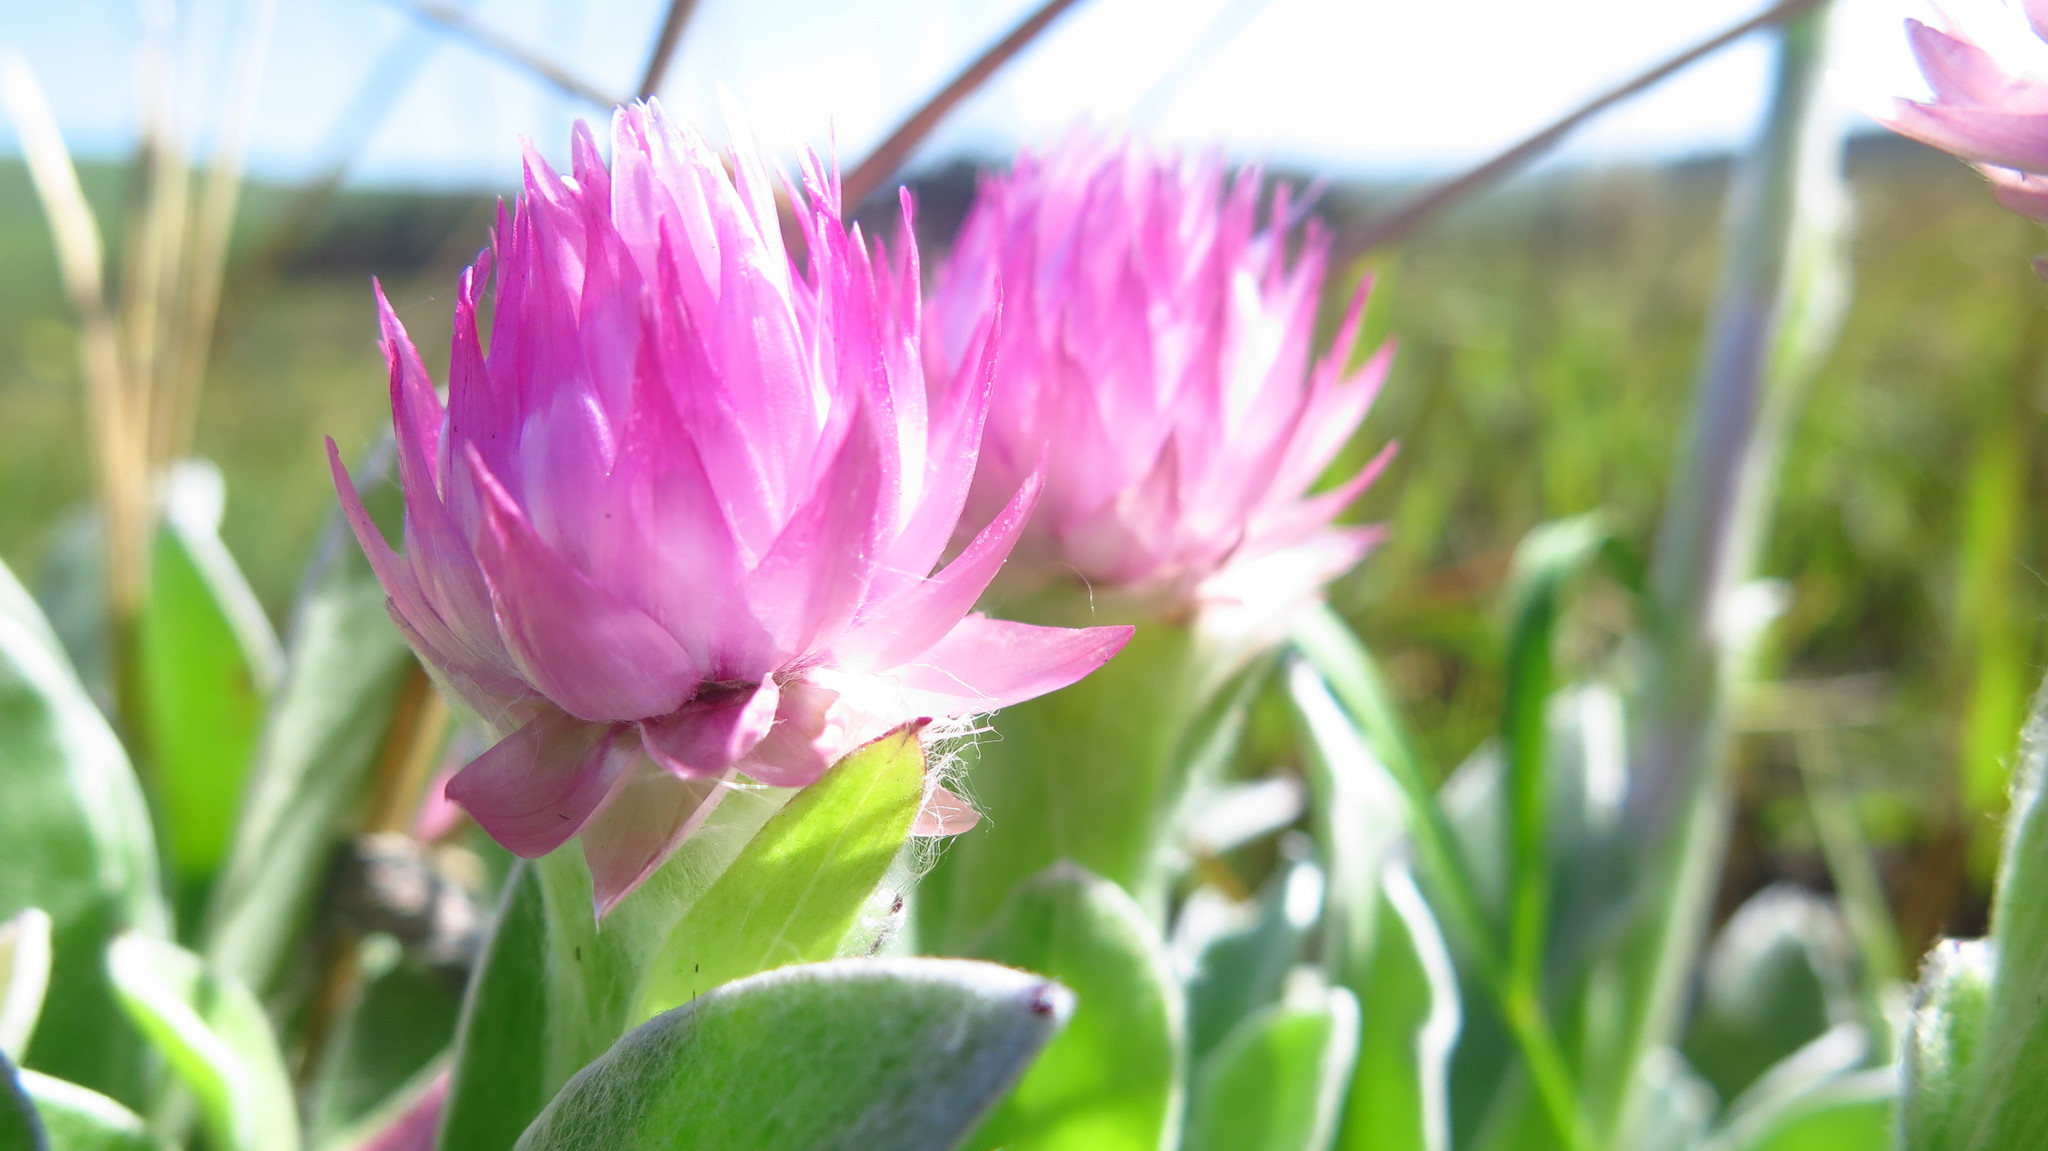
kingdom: Plantae
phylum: Tracheophyta
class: Magnoliopsida
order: Asterales
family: Asteraceae
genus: Helichrysum
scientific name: Helichrysum ecklonis
